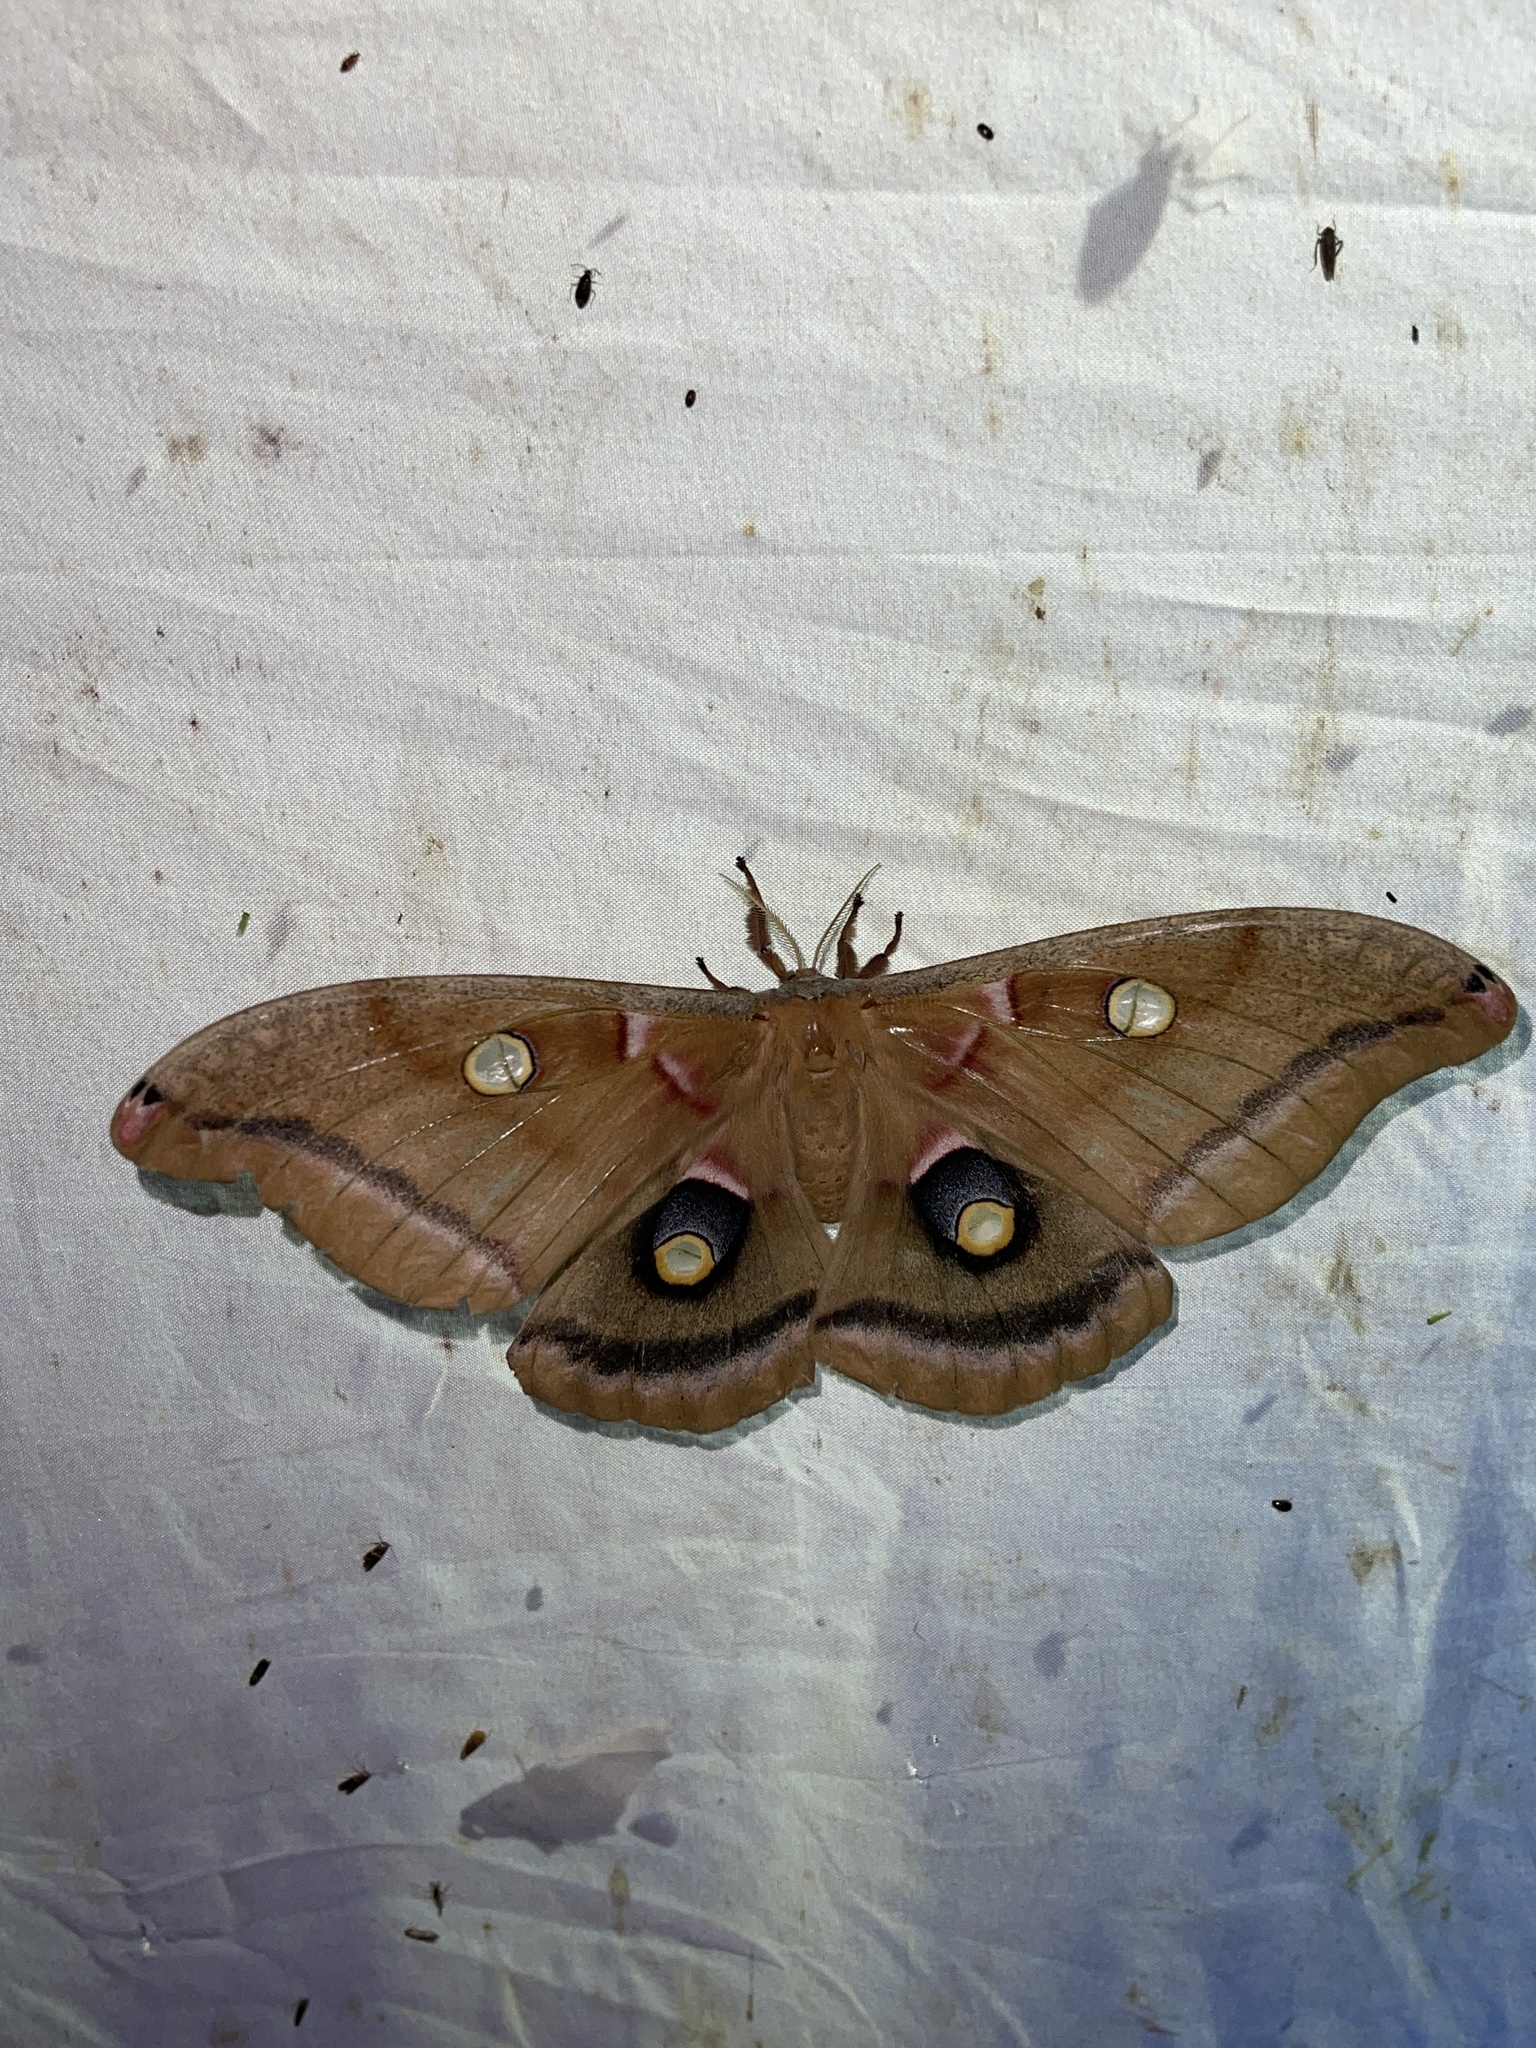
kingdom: Animalia
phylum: Arthropoda
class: Insecta
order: Lepidoptera
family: Saturniidae
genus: Antheraea
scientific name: Antheraea polyphemus
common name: Polyphemus moth
